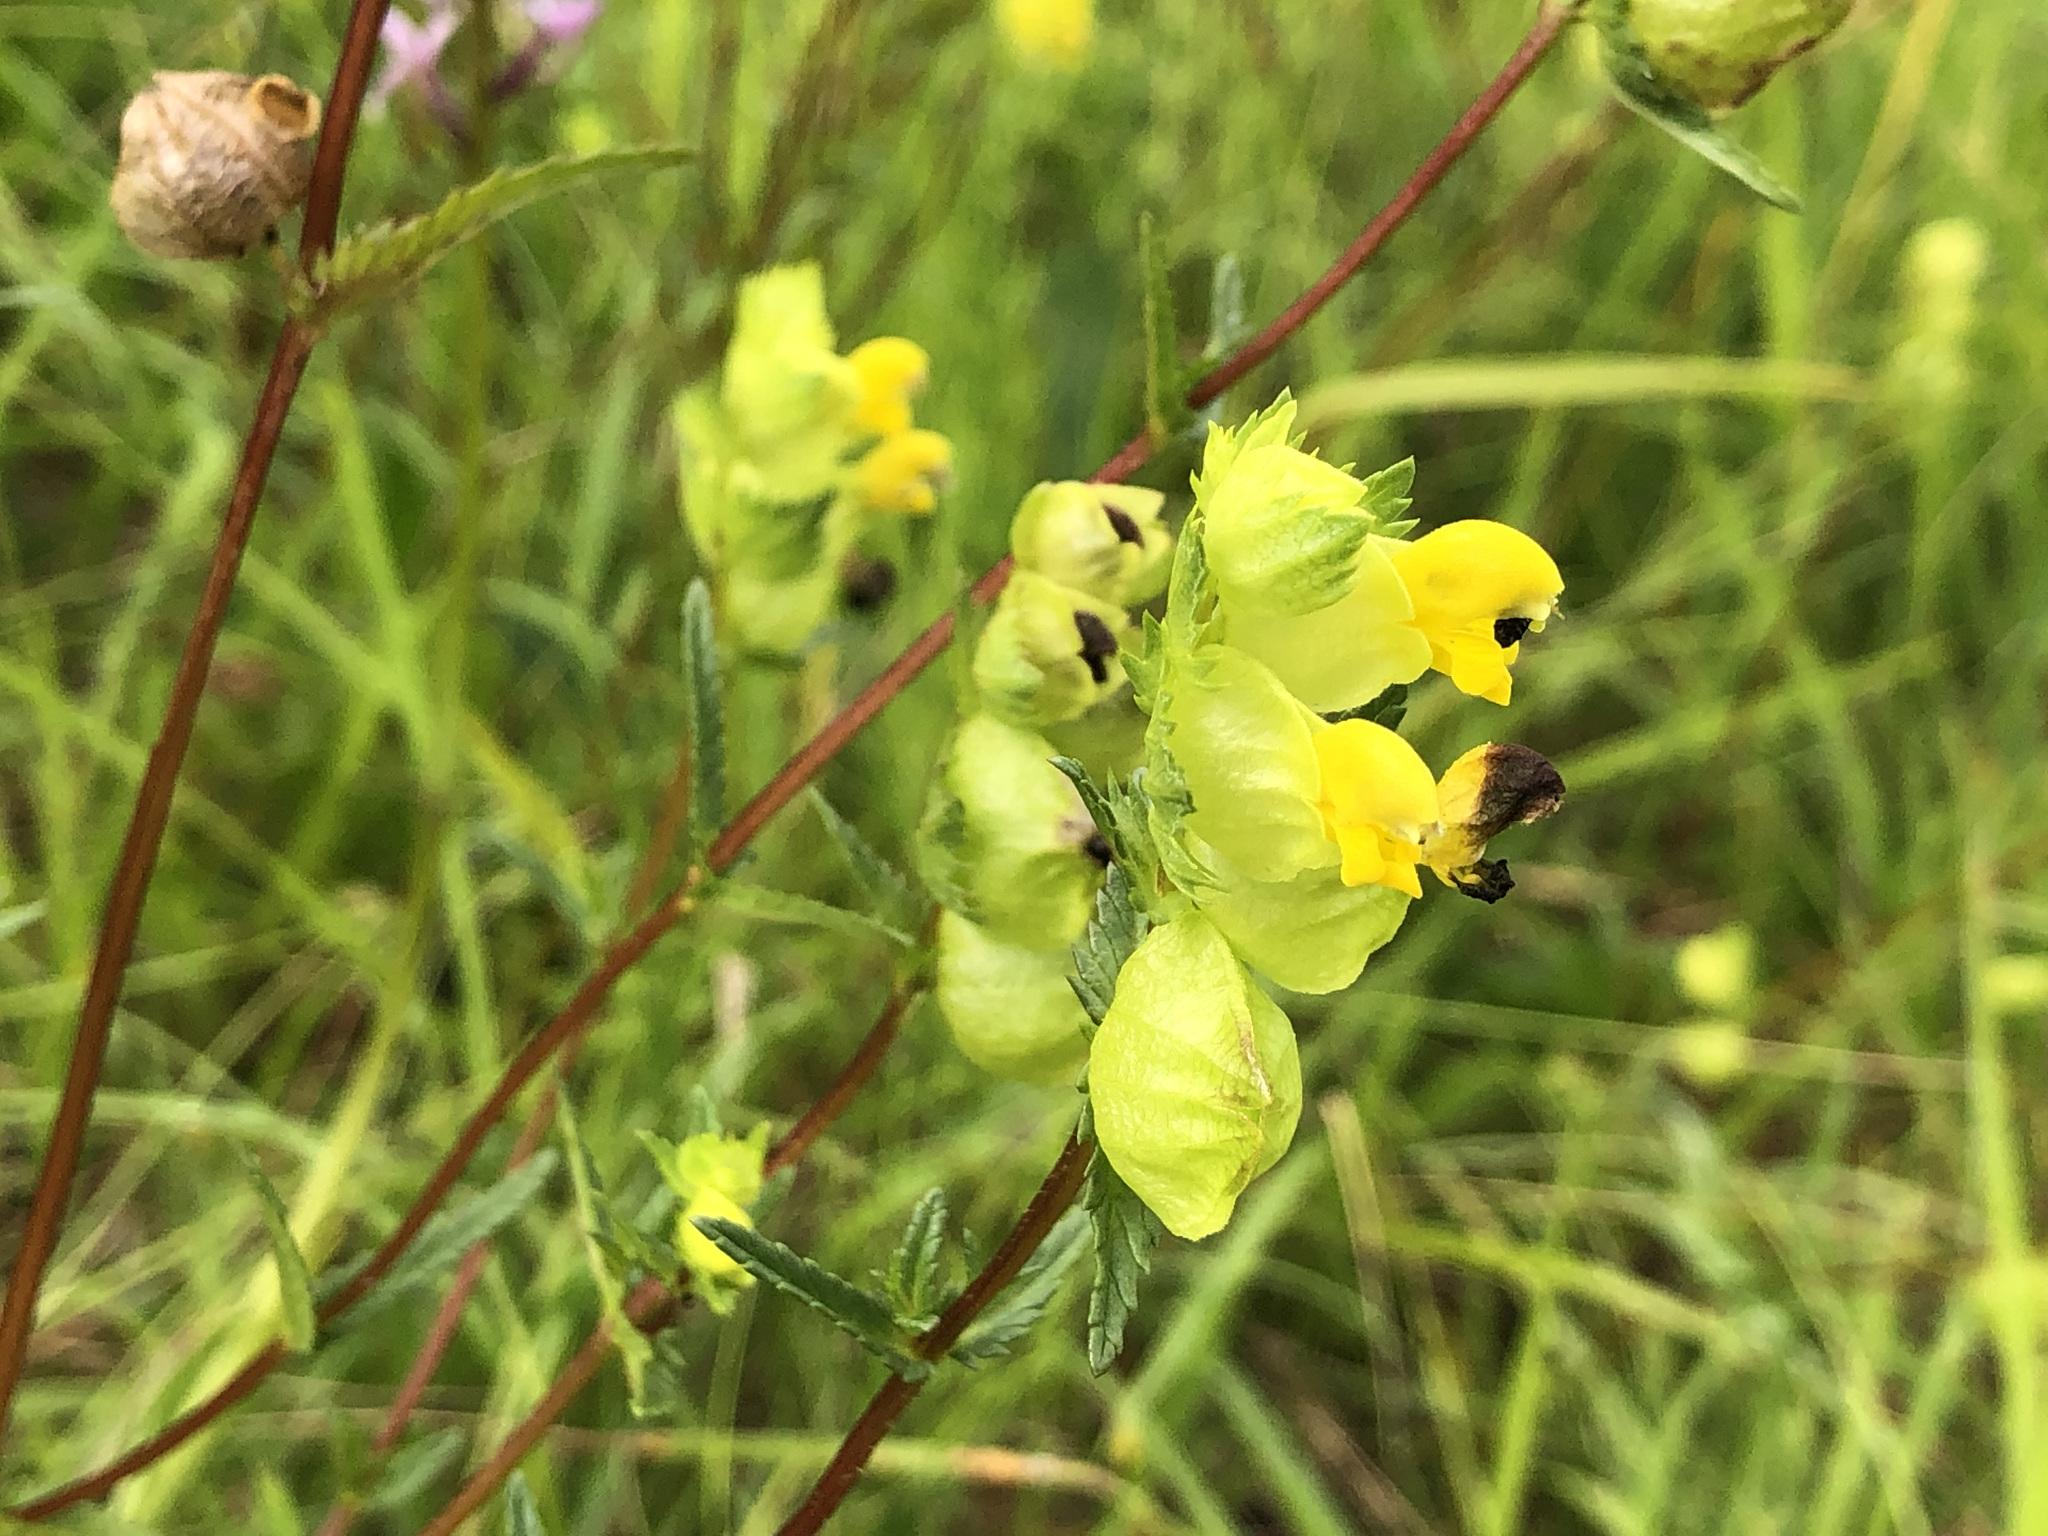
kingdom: Plantae
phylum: Tracheophyta
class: Magnoliopsida
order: Lamiales
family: Orobanchaceae
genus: Rhinanthus
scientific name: Rhinanthus minor
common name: Yellow-rattle
